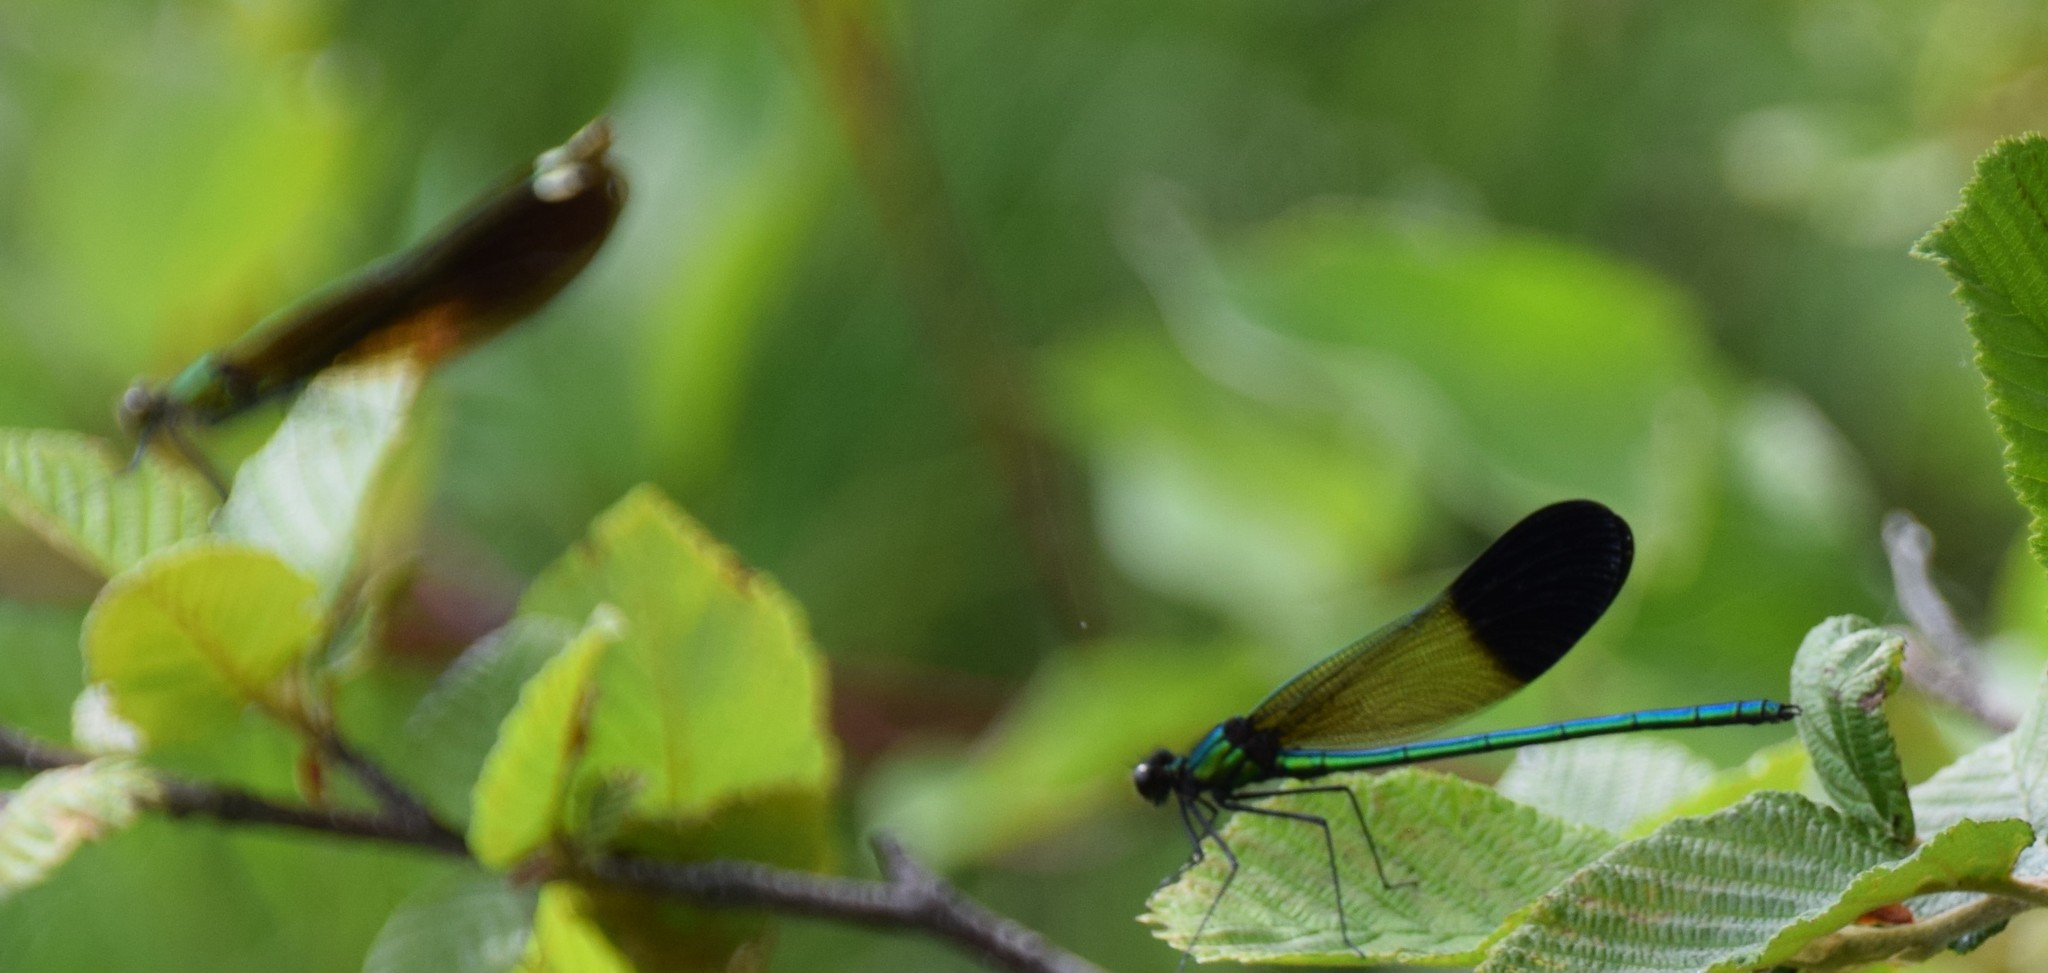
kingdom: Animalia
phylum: Arthropoda
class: Insecta
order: Odonata
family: Calopterygidae
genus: Calopteryx
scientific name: Calopteryx aequabilis
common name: River jewelwing
